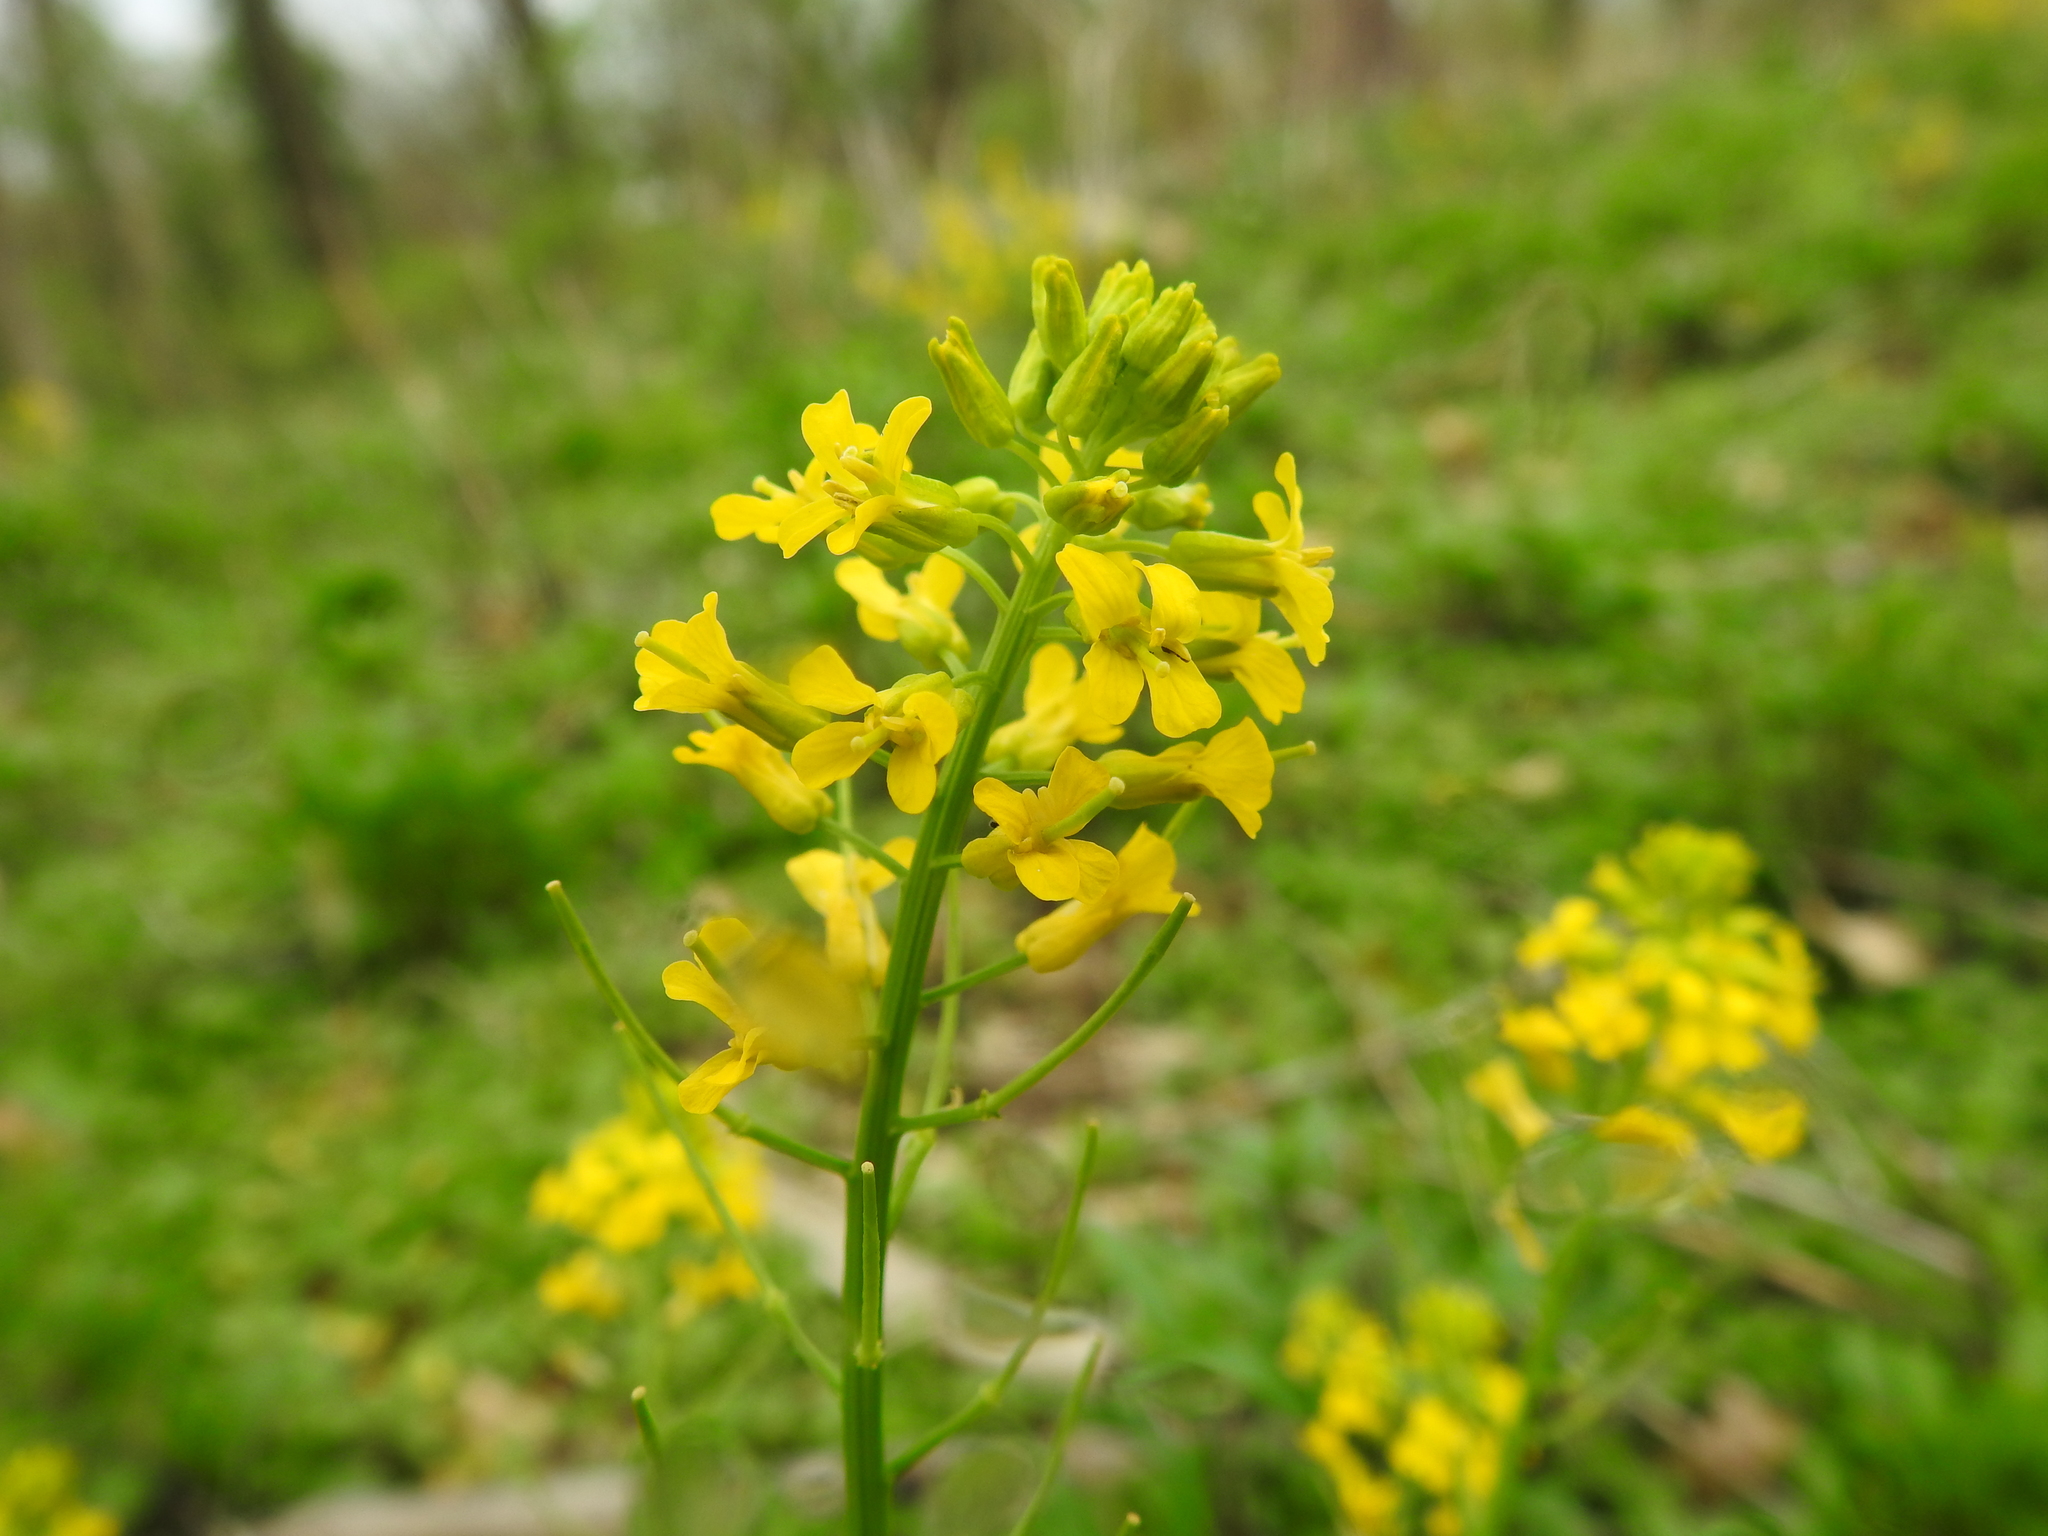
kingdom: Plantae
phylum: Tracheophyta
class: Magnoliopsida
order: Brassicales
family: Brassicaceae
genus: Barbarea
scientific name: Barbarea vulgaris
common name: Cressy-greens
